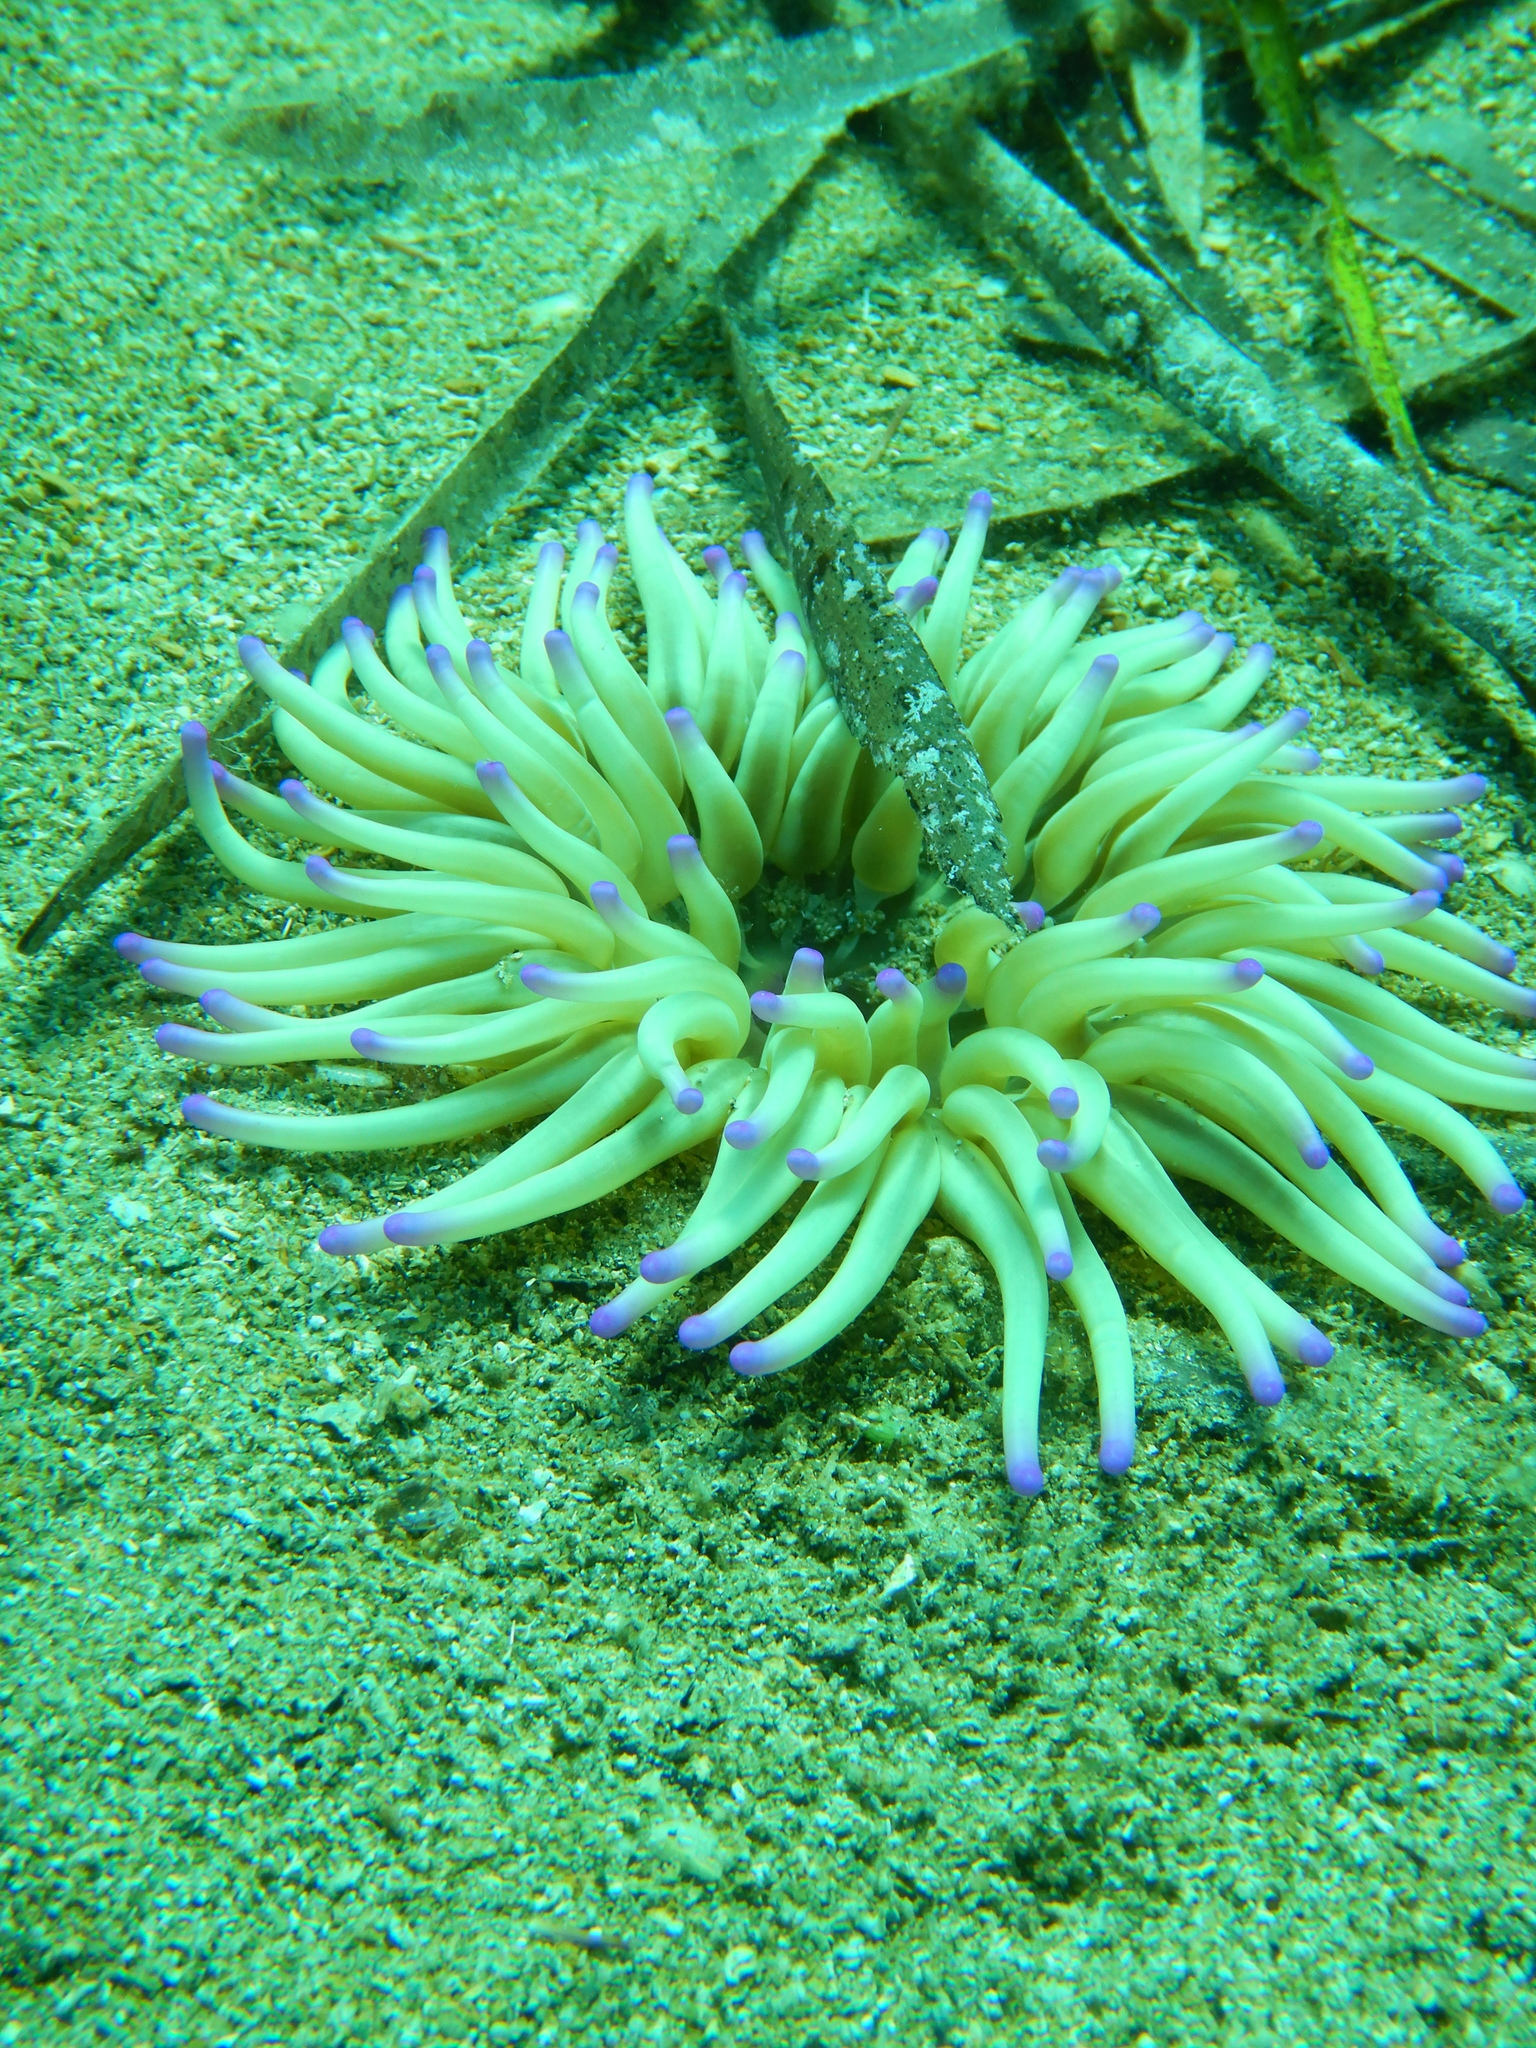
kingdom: Animalia
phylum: Cnidaria
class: Anthozoa
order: Actiniaria
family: Actiniidae
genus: Condylactis
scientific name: Condylactis aurantiaca
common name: Golden anemone
